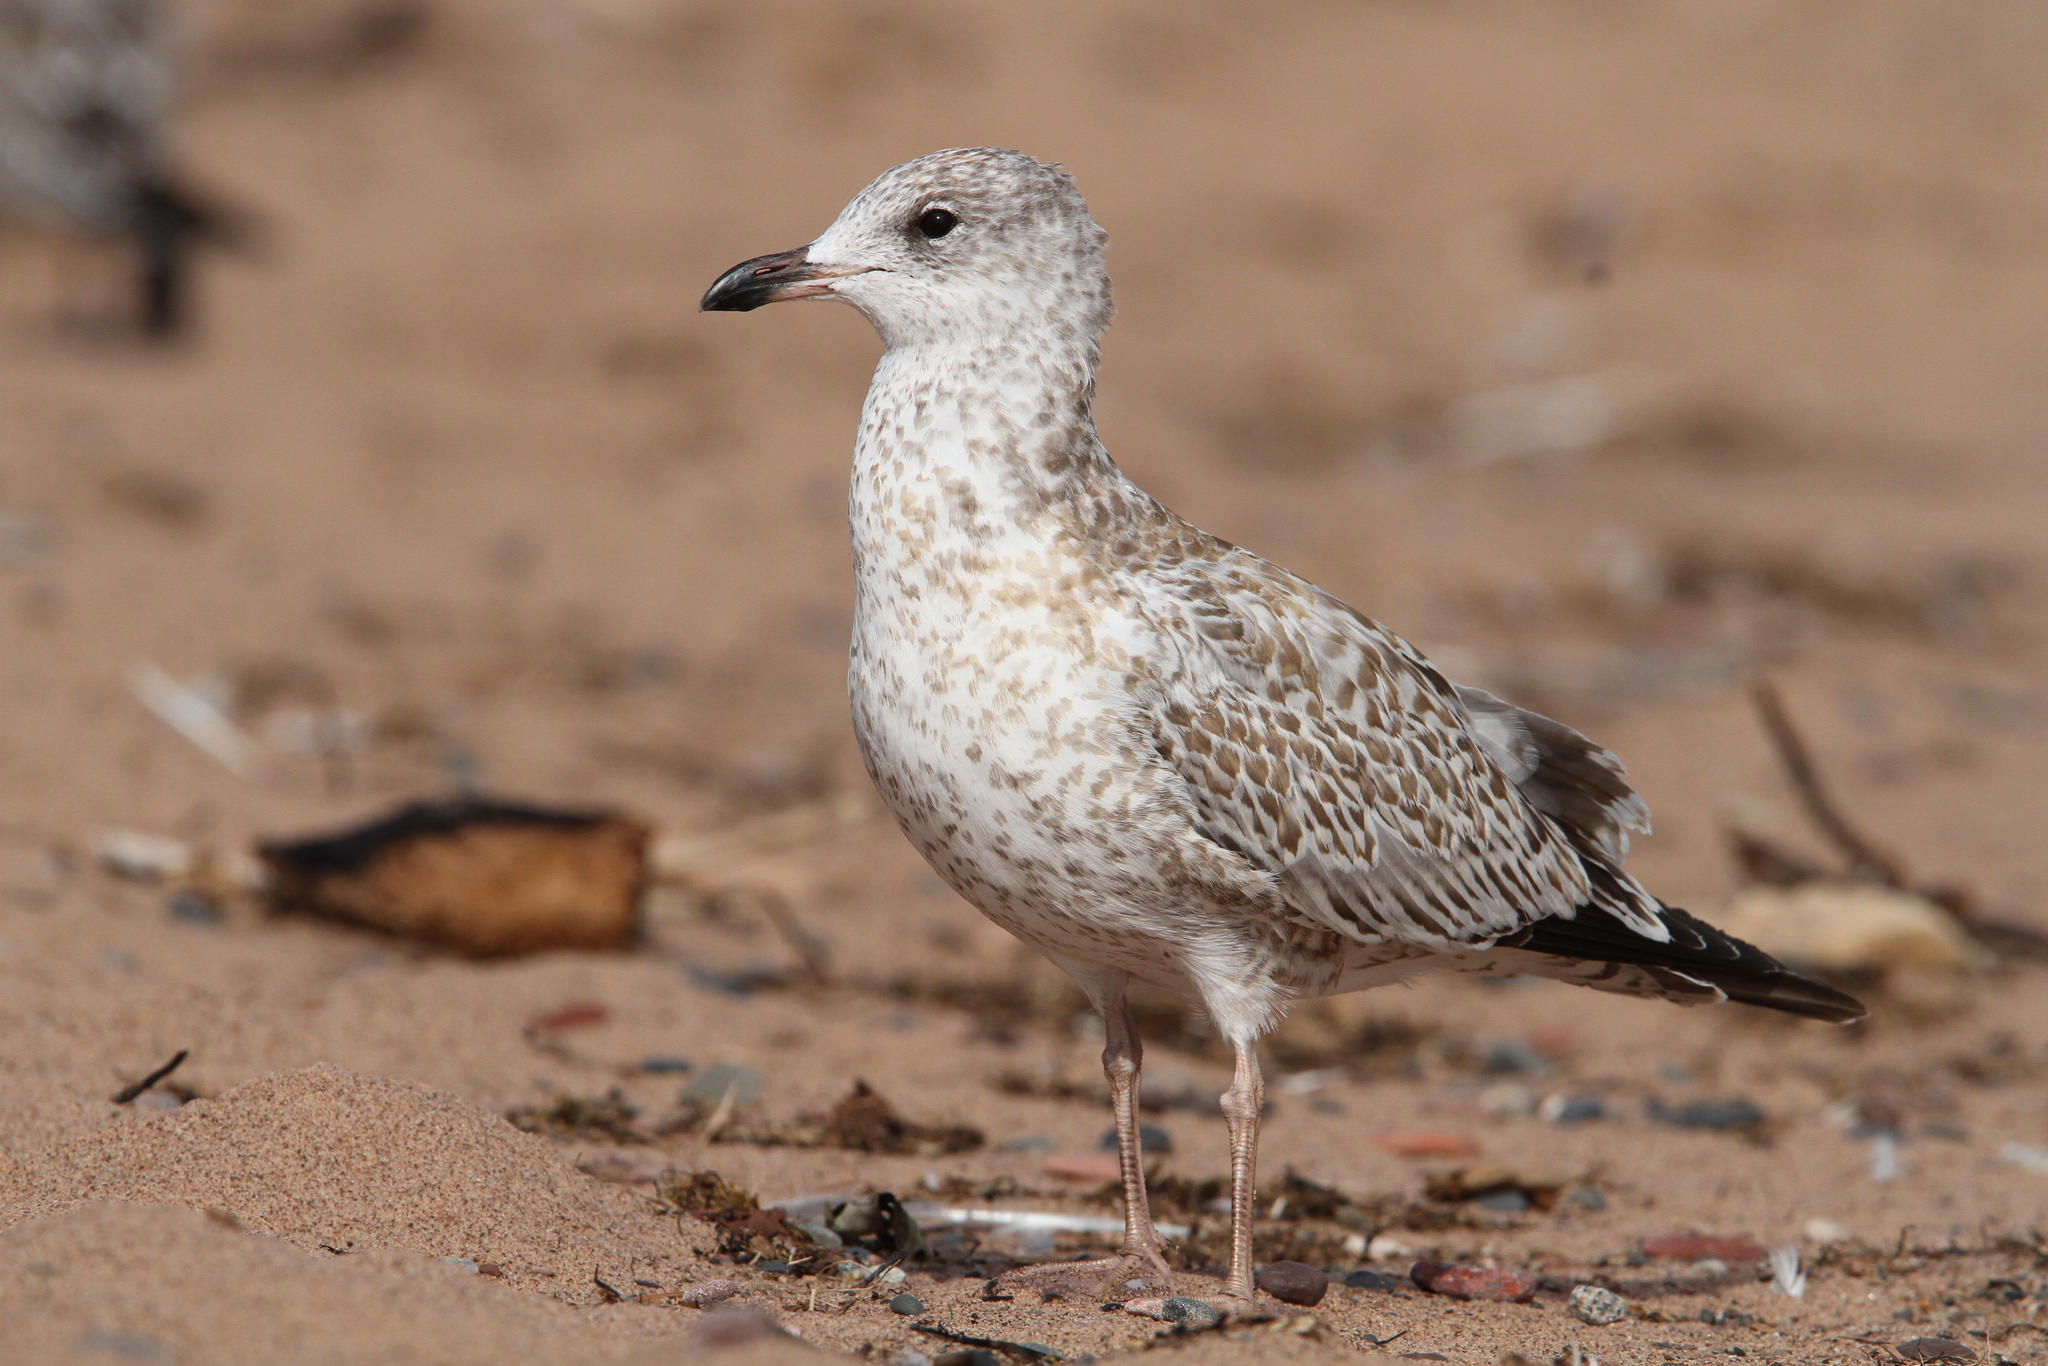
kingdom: Animalia
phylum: Chordata
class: Aves
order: Charadriiformes
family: Laridae
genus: Larus
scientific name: Larus delawarensis
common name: Ring-billed gull
